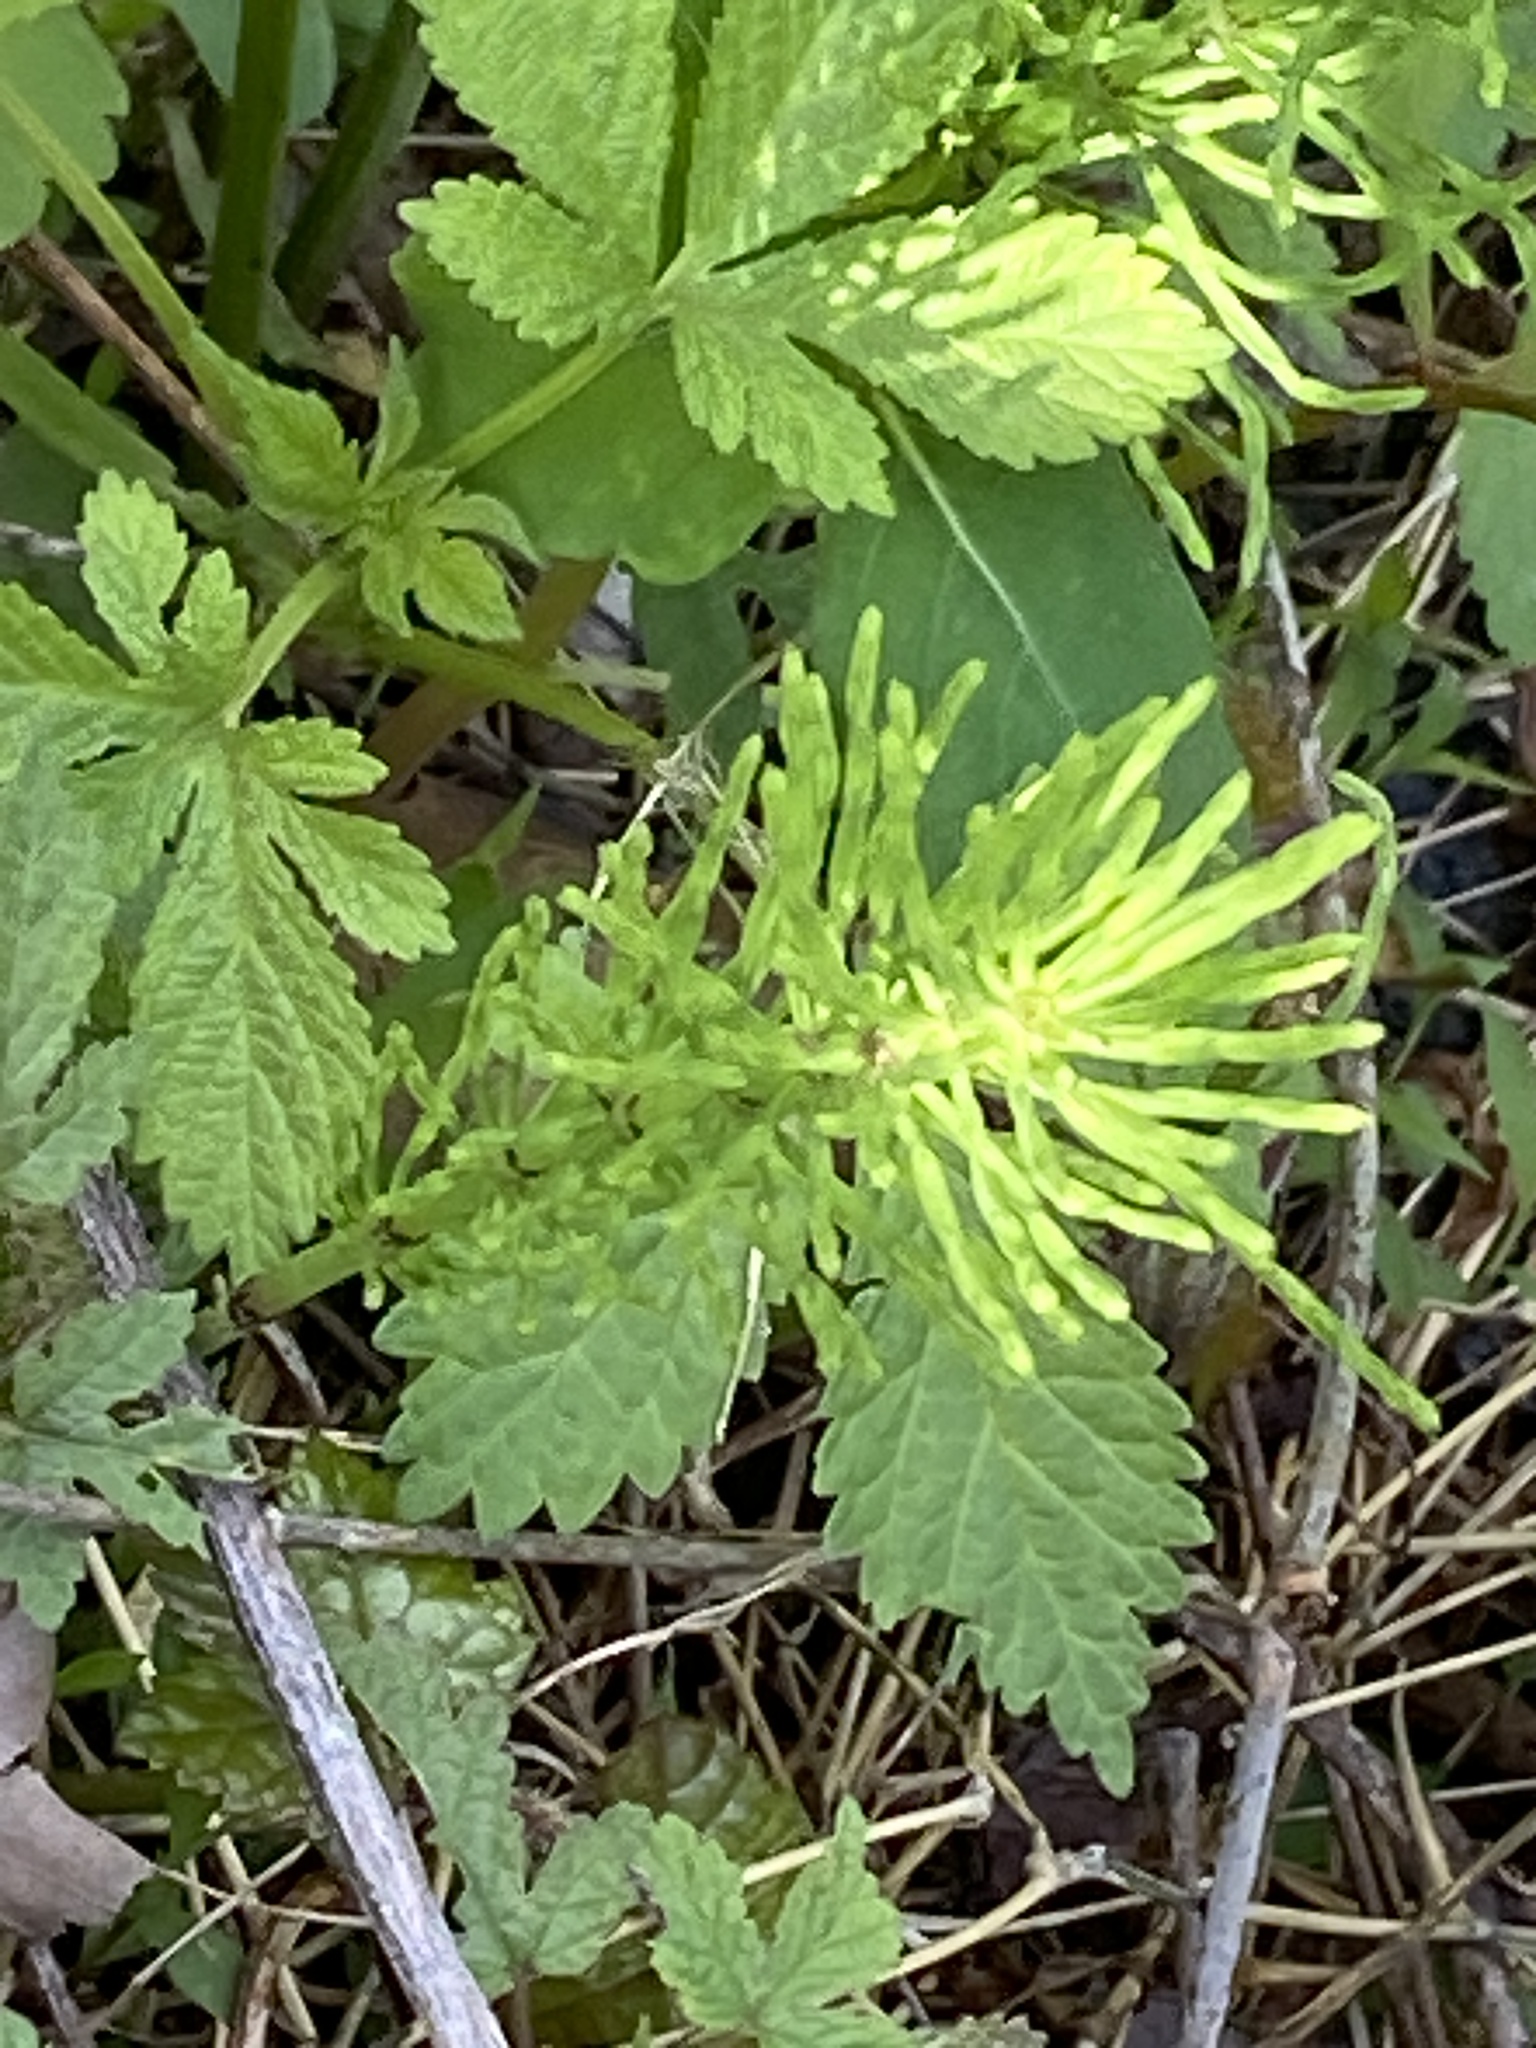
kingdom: Plantae
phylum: Tracheophyta
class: Polypodiopsida
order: Equisetales
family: Equisetaceae
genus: Equisetum
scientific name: Equisetum arvense
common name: Field horsetail
